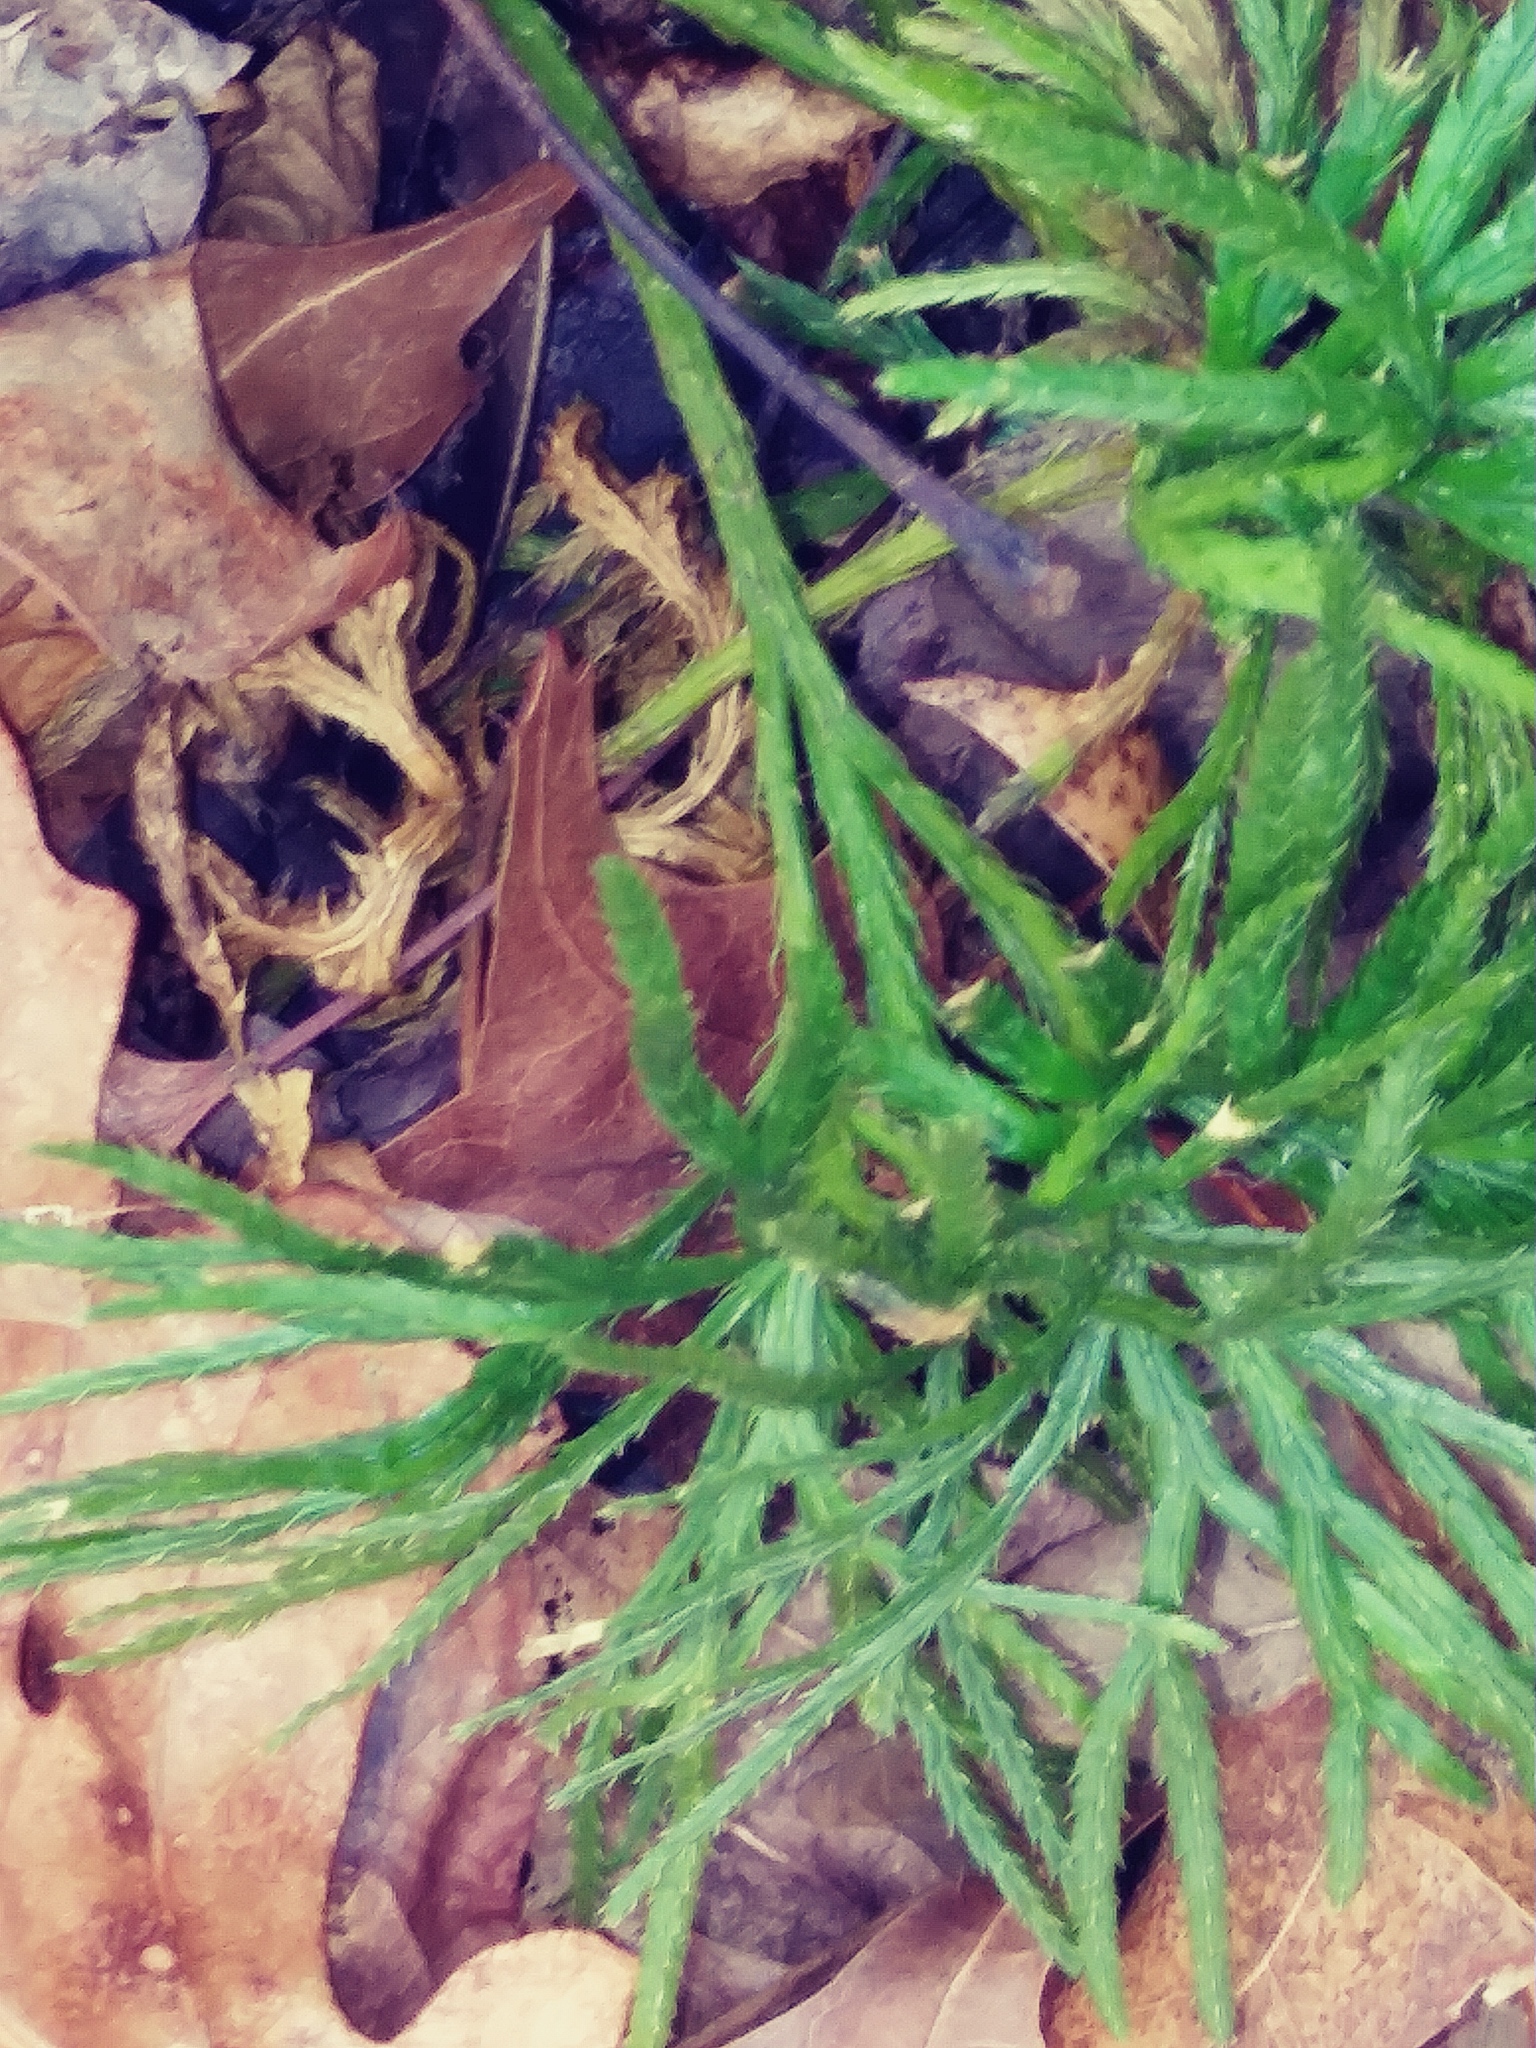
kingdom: Plantae
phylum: Tracheophyta
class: Lycopodiopsida
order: Lycopodiales
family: Lycopodiaceae
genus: Diphasiastrum
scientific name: Diphasiastrum digitatum
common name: Southern running-pine
